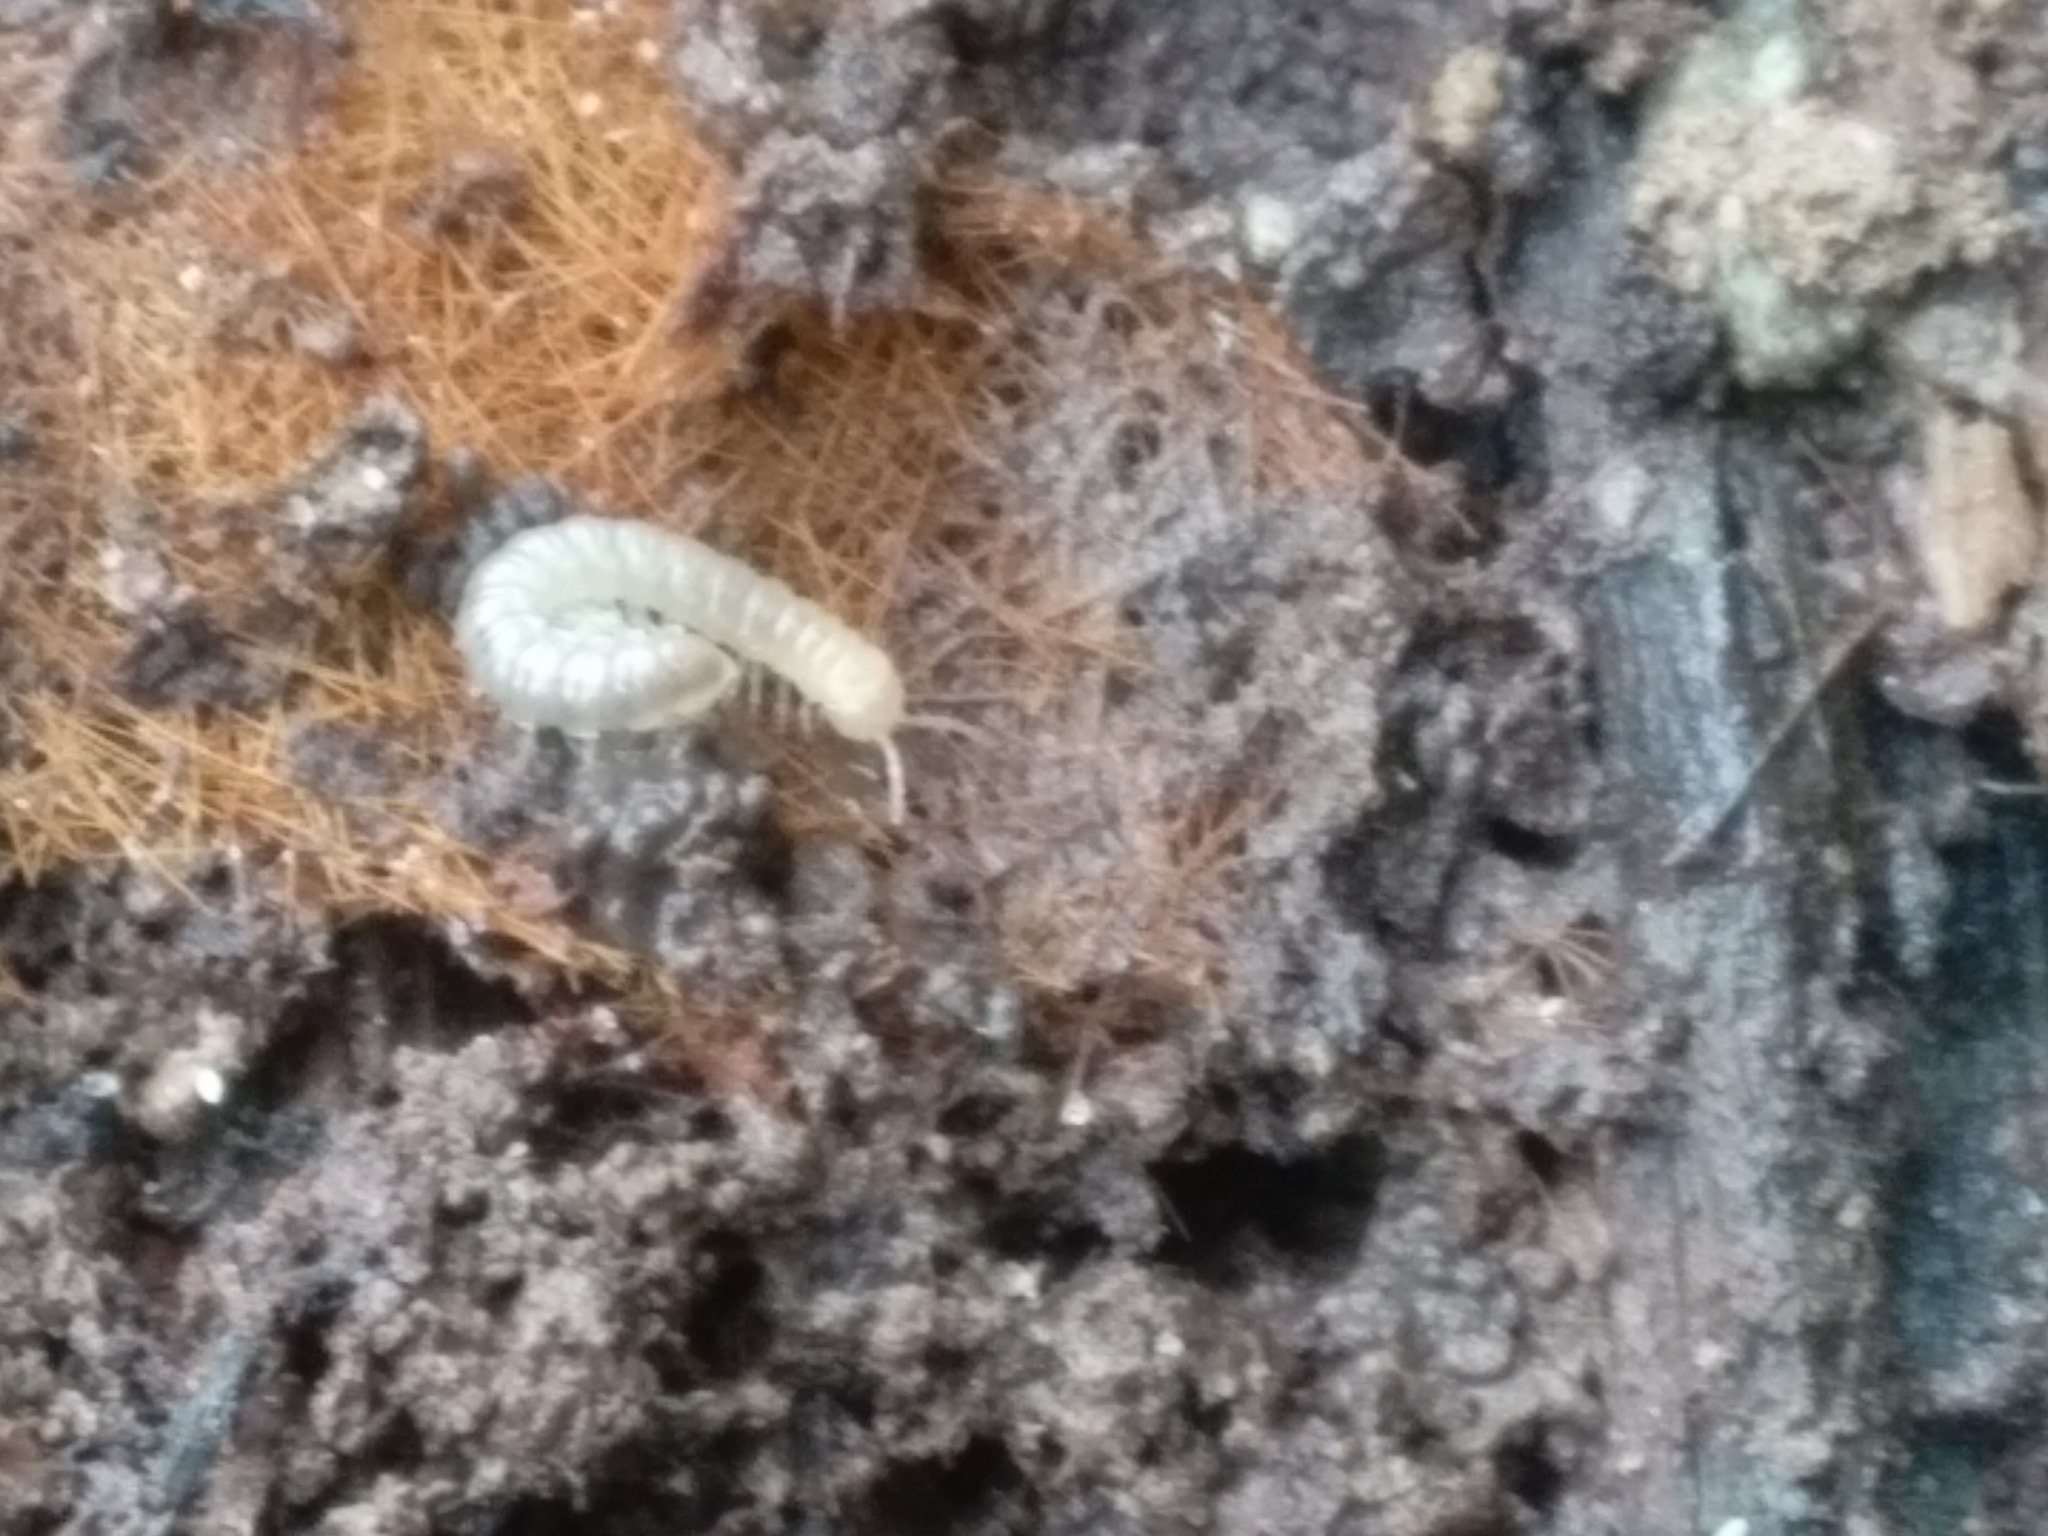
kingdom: Animalia
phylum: Arthropoda
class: Diplopoda
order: Polydesmida
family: Paradoxosomatidae
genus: Oxidus
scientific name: Oxidus gracilis
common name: Greenhouse millipede
